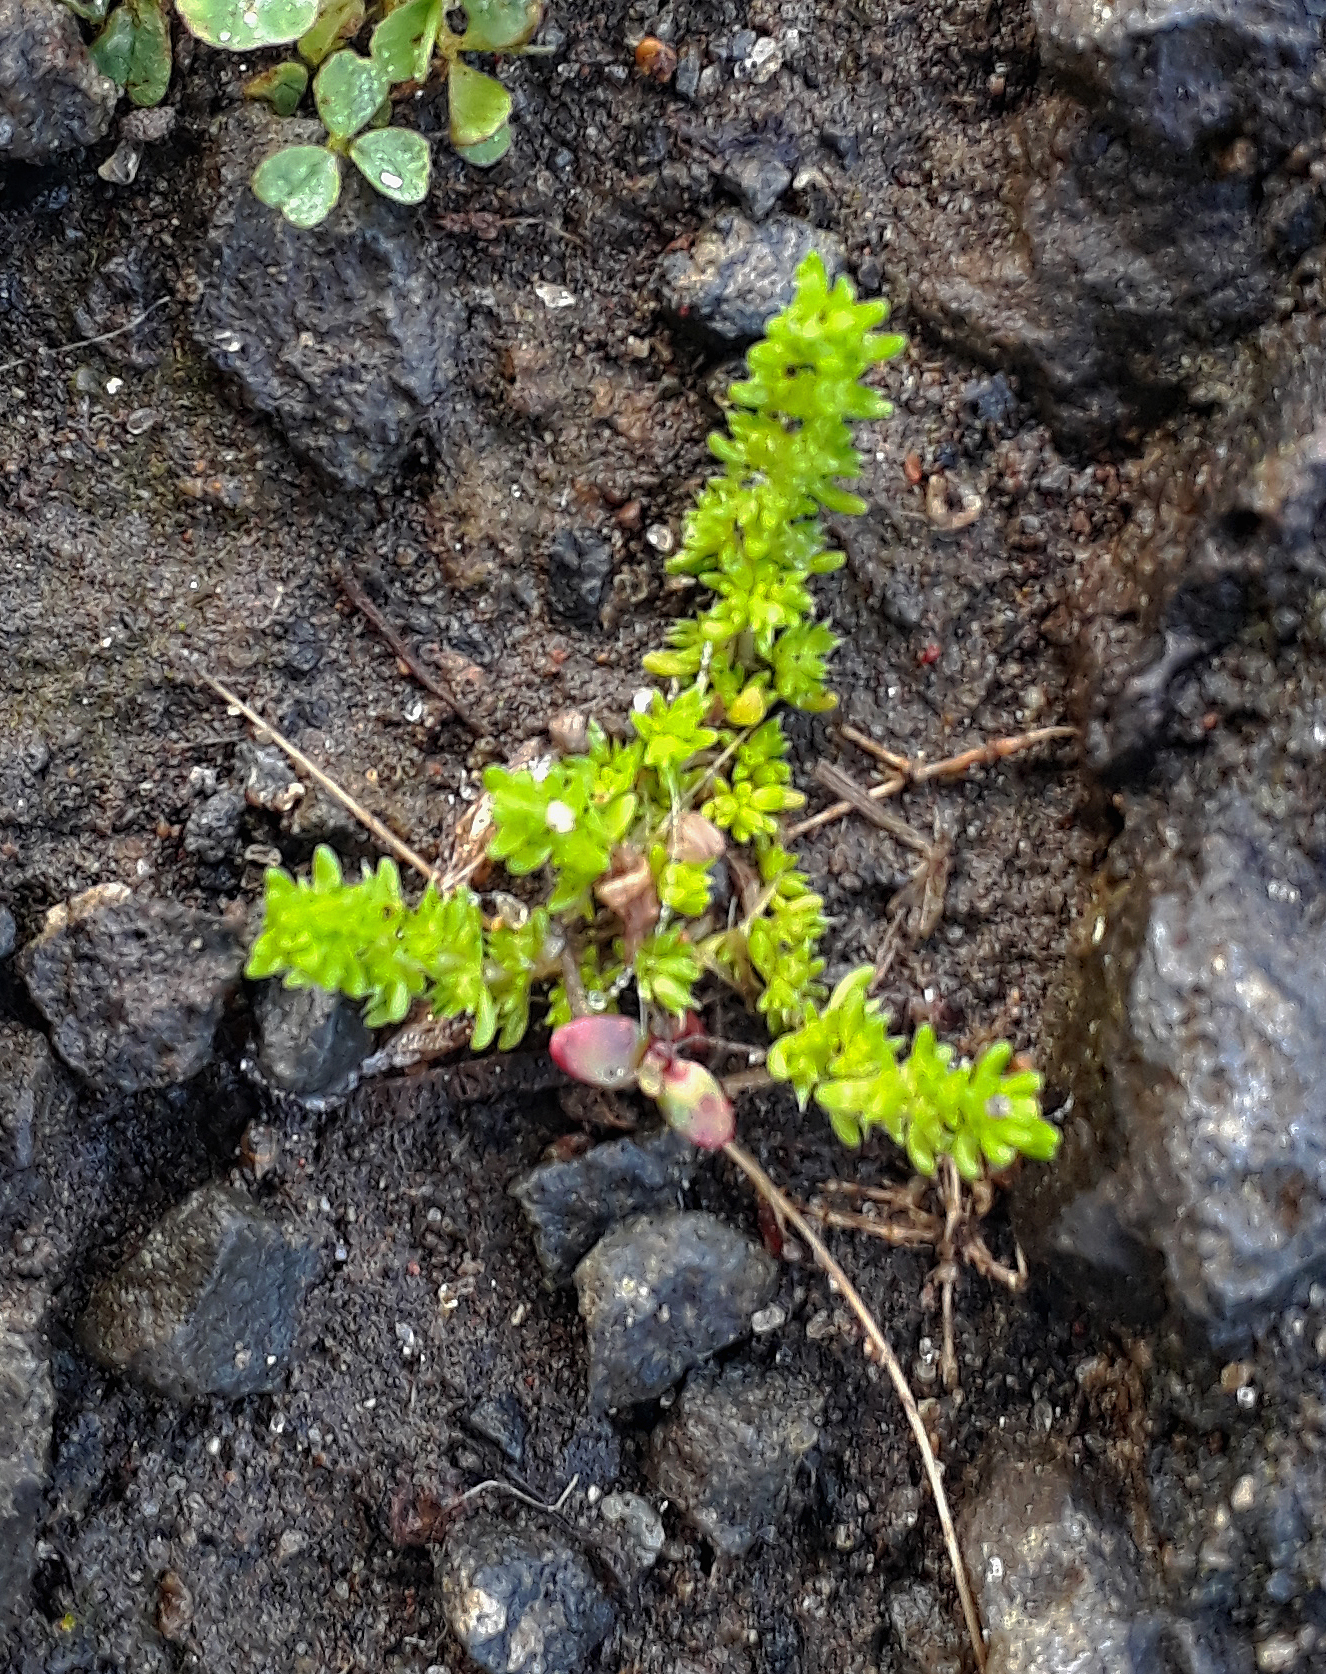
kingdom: Plantae
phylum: Tracheophyta
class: Magnoliopsida
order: Saxifragales
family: Crassulaceae
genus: Crassula
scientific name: Crassula alata
